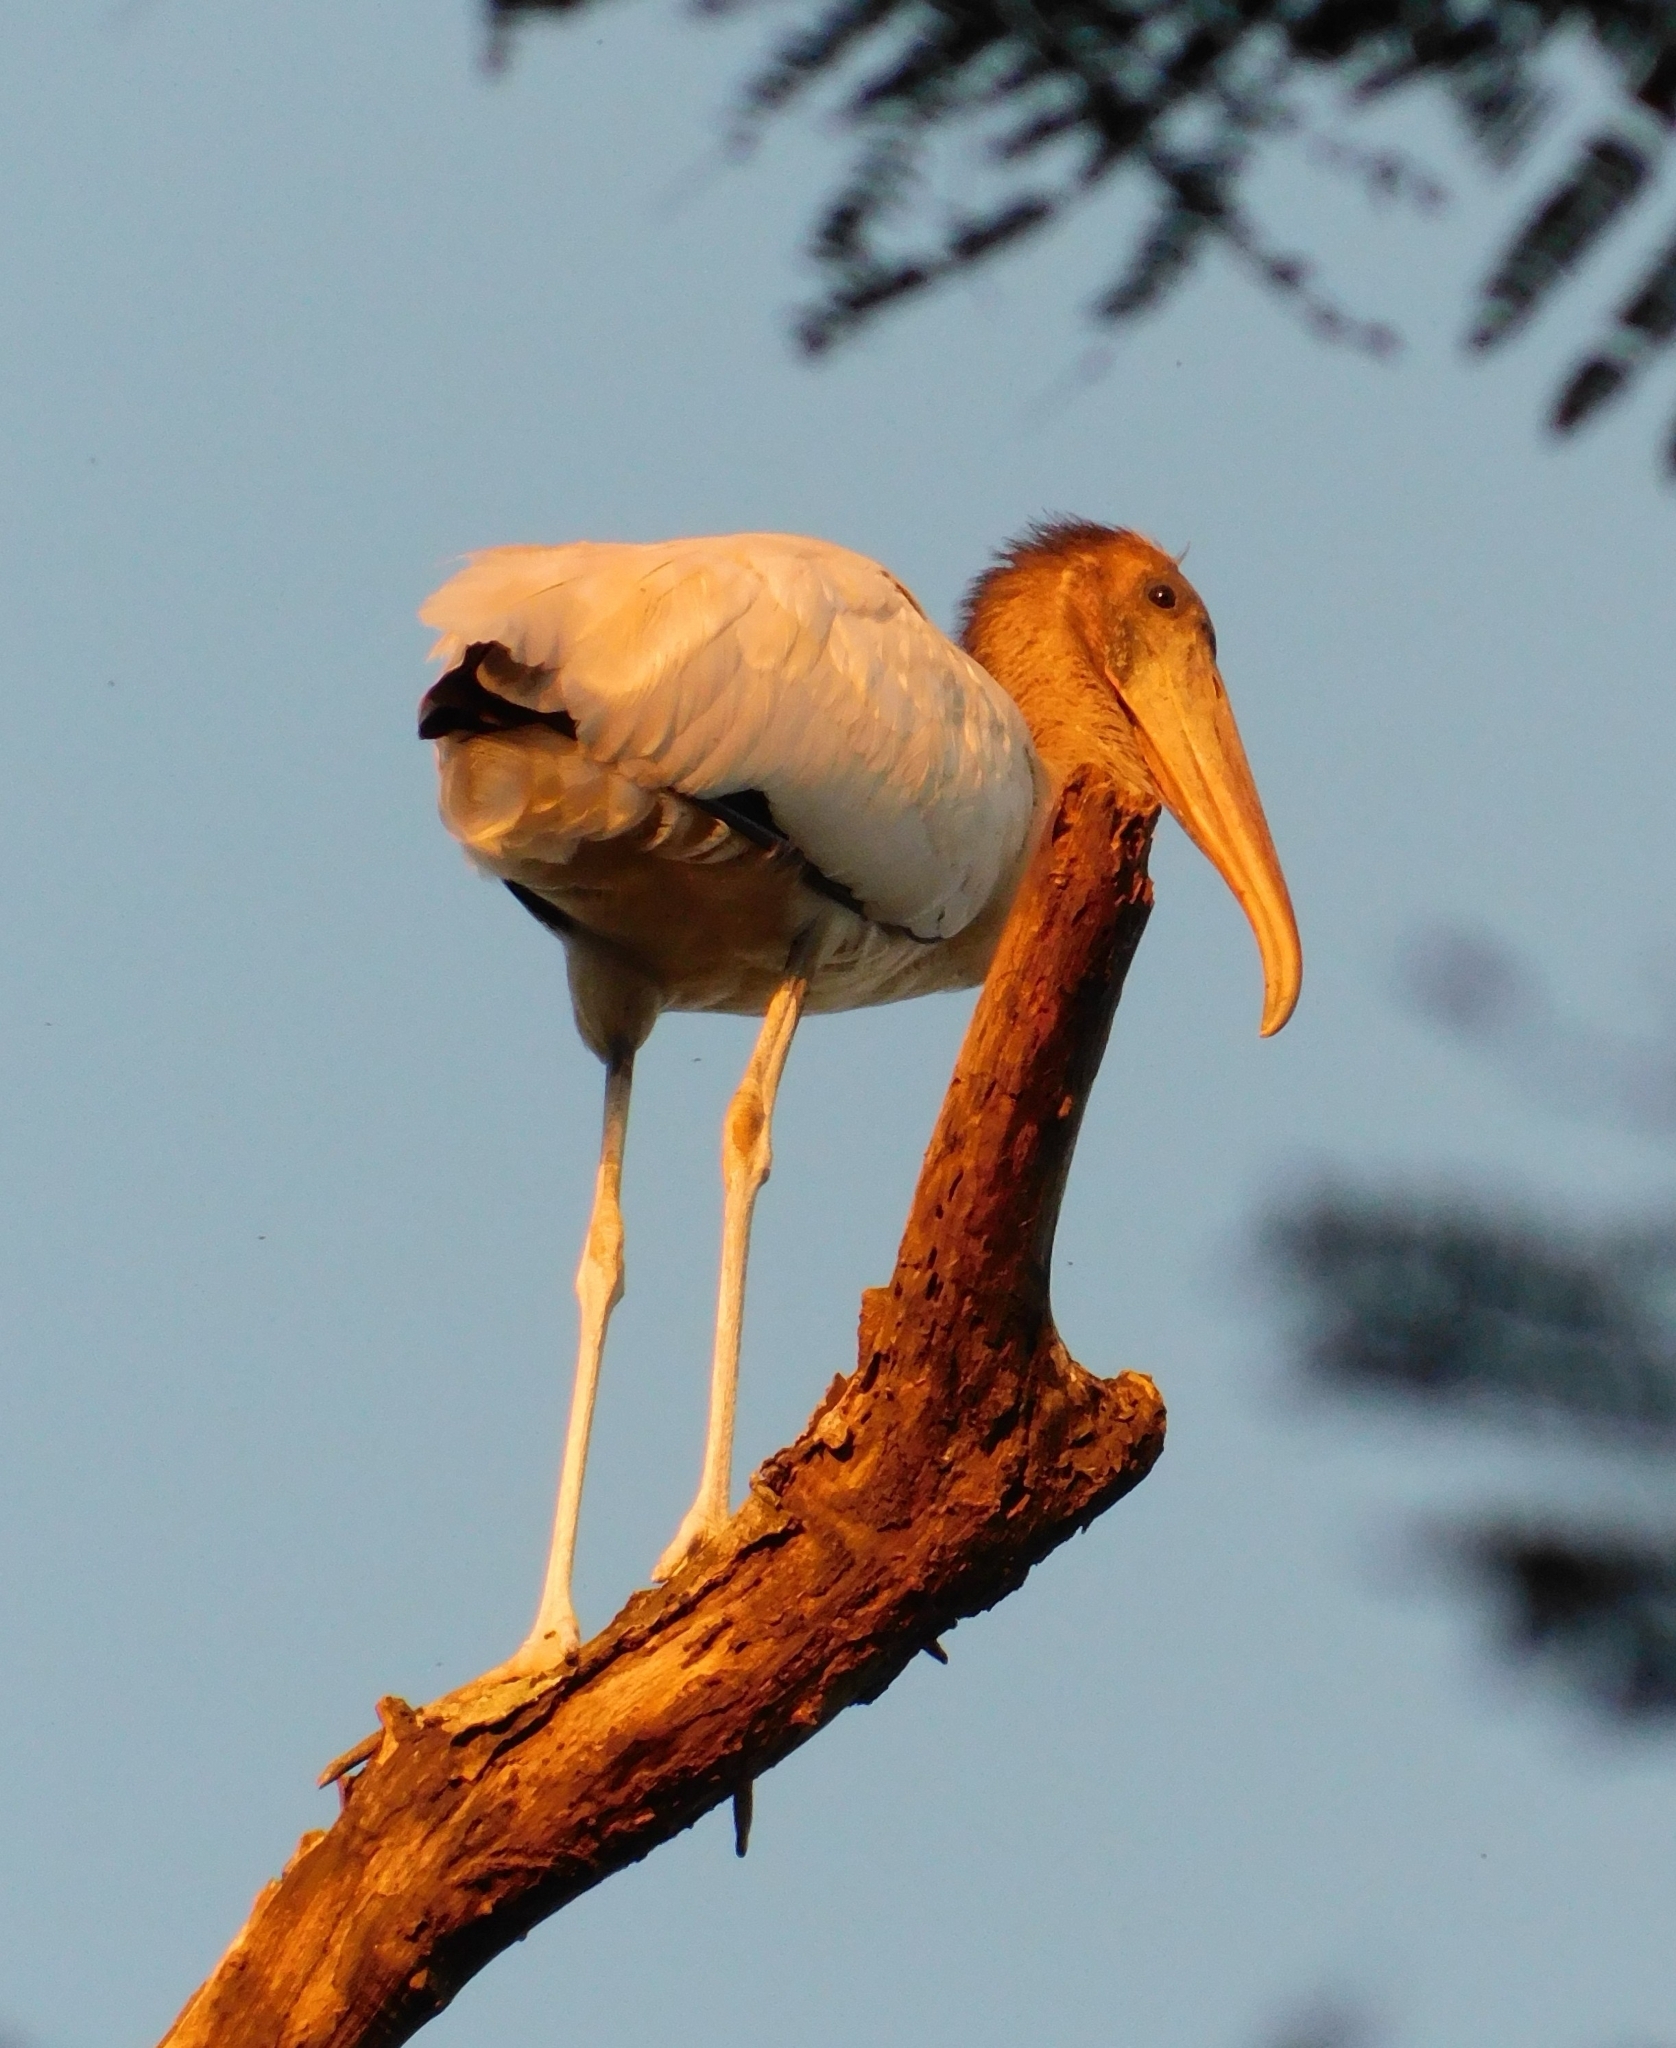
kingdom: Animalia
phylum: Chordata
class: Aves
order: Ciconiiformes
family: Ciconiidae
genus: Mycteria
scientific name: Mycteria americana
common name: Wood stork
